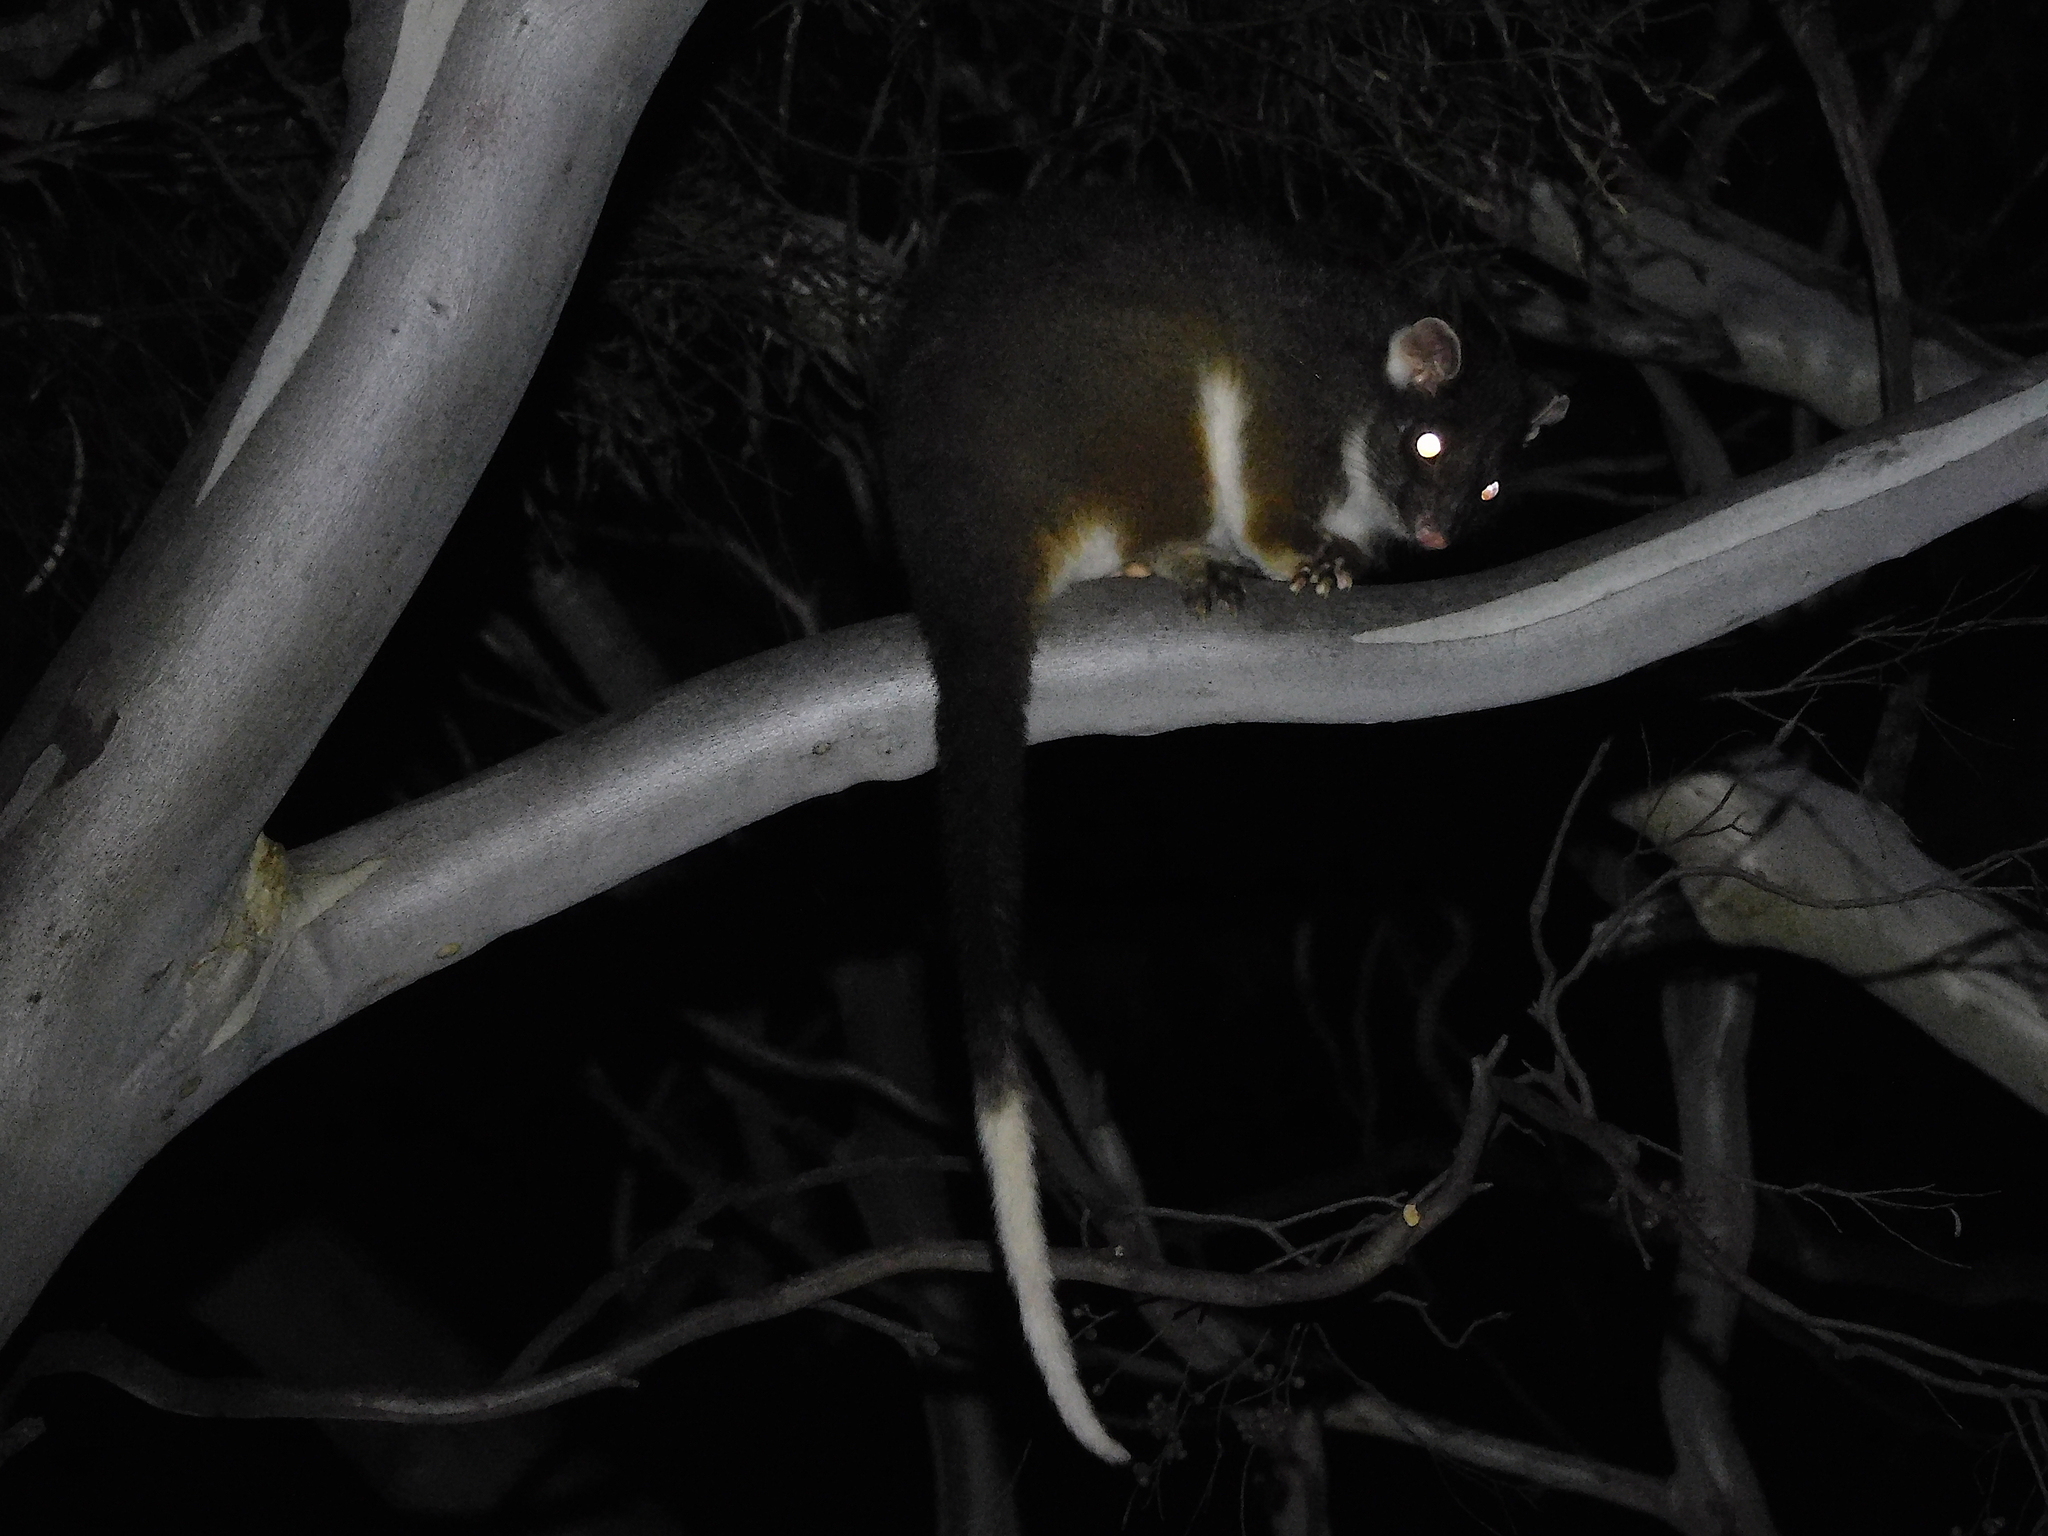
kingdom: Animalia
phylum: Chordata
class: Mammalia
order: Diprotodontia
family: Pseudocheiridae
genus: Pseudocheirus
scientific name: Pseudocheirus peregrinus
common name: Common ringtail possum
